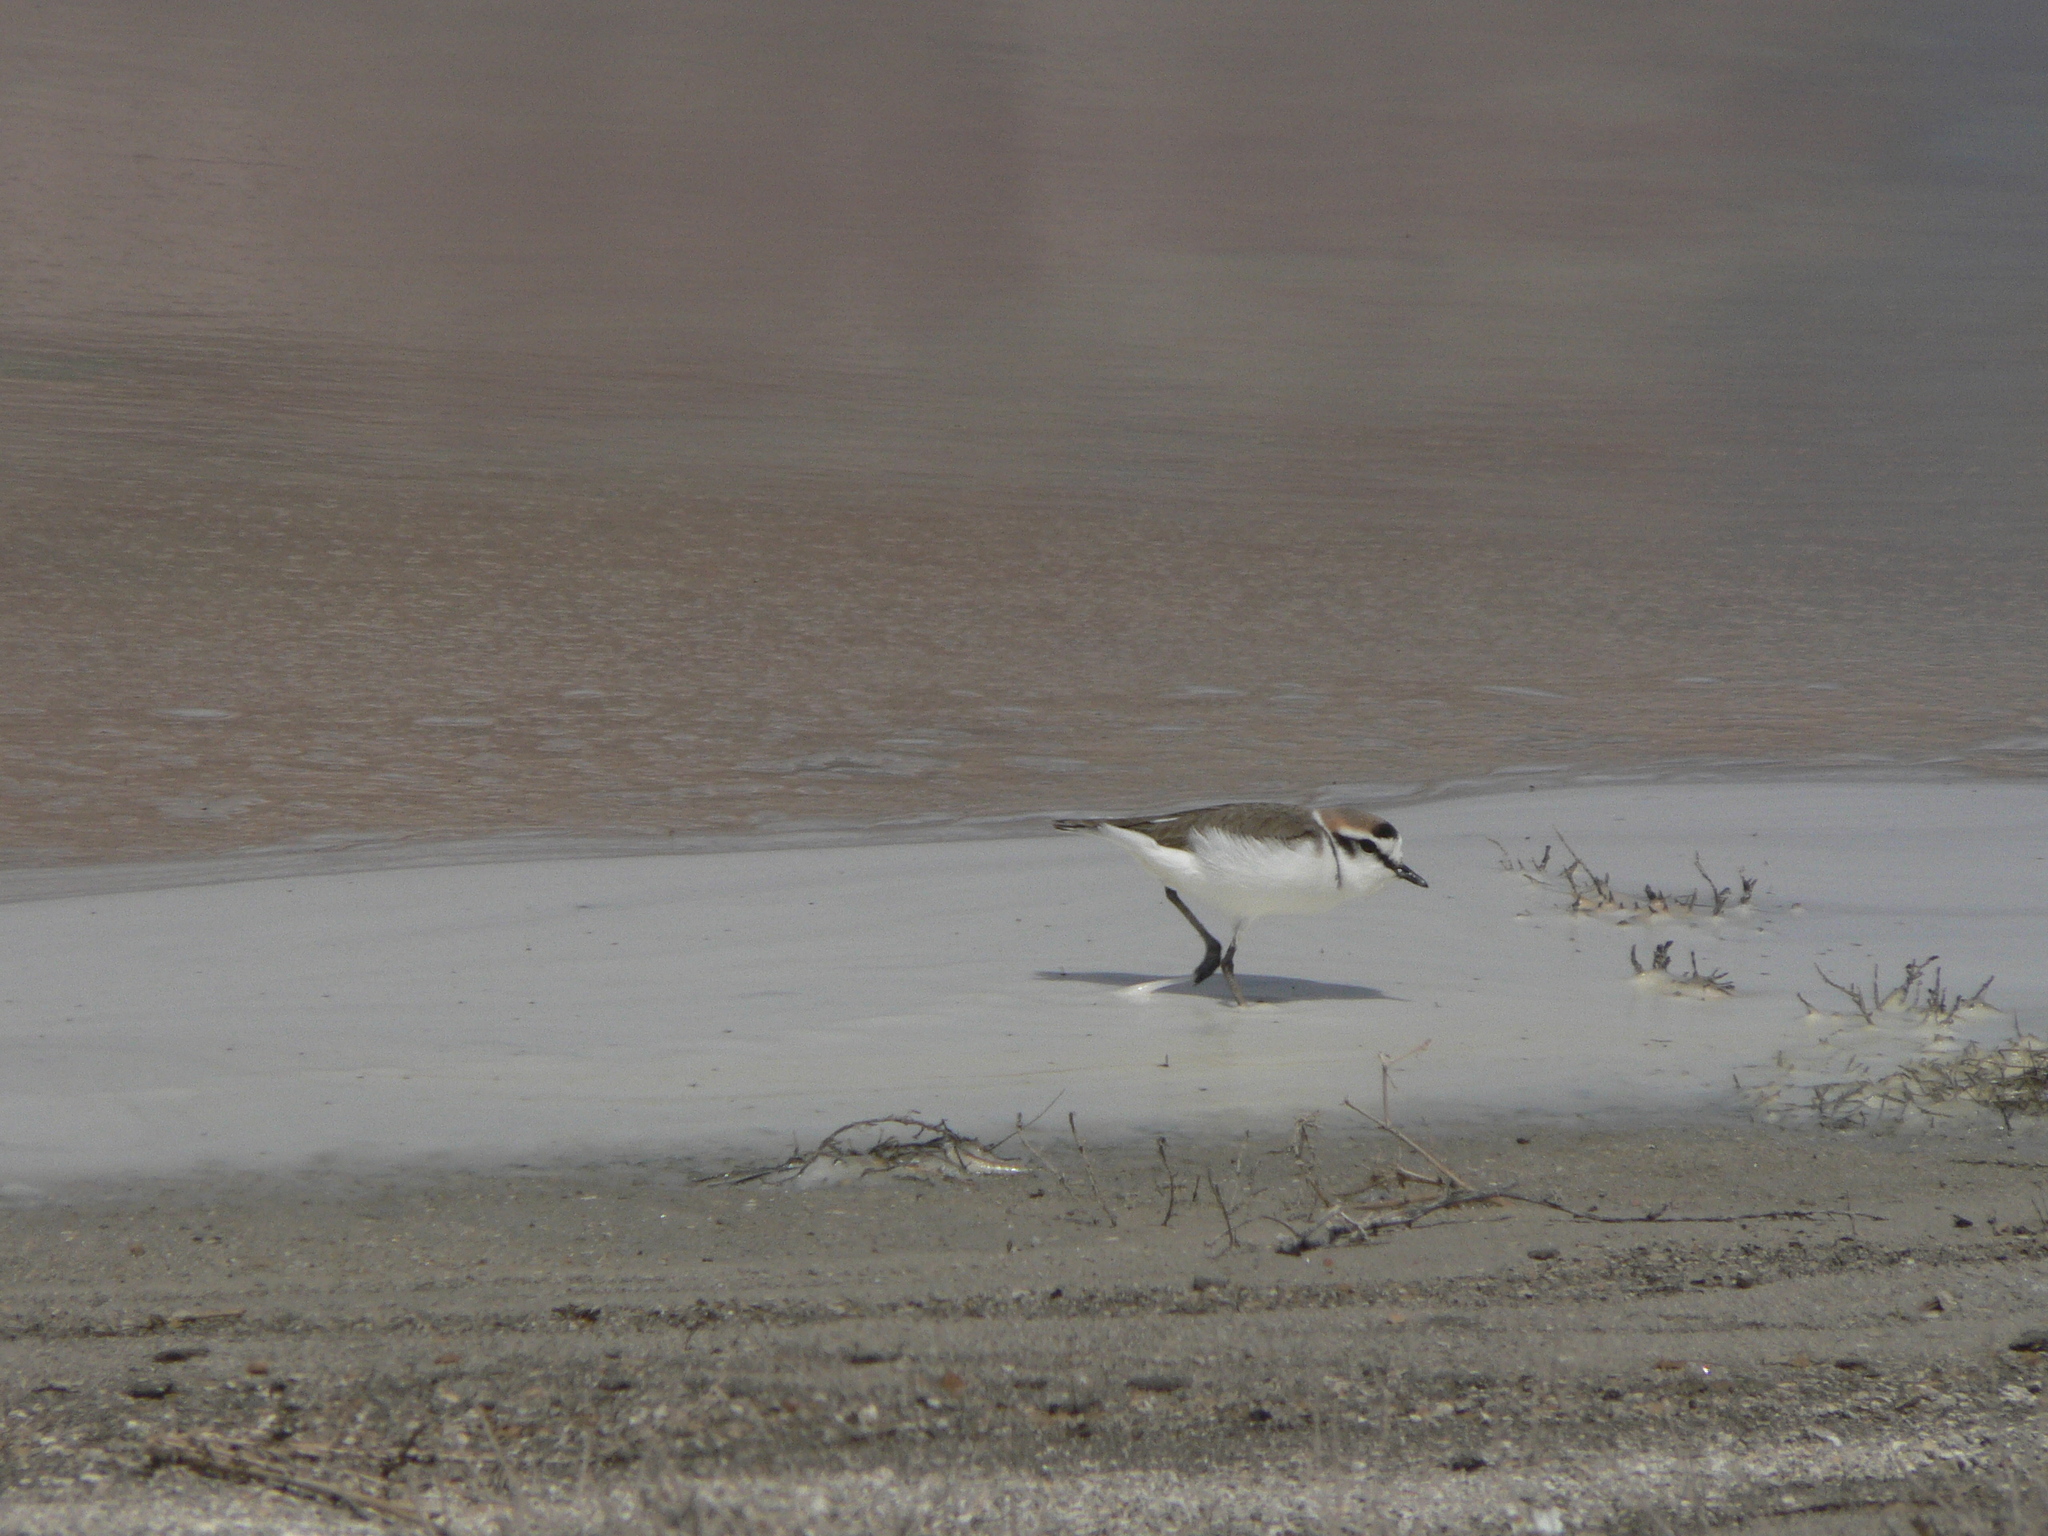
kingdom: Animalia
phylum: Chordata
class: Aves
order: Charadriiformes
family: Charadriidae
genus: Charadrius
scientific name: Charadrius alexandrinus
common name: Kentish plover
